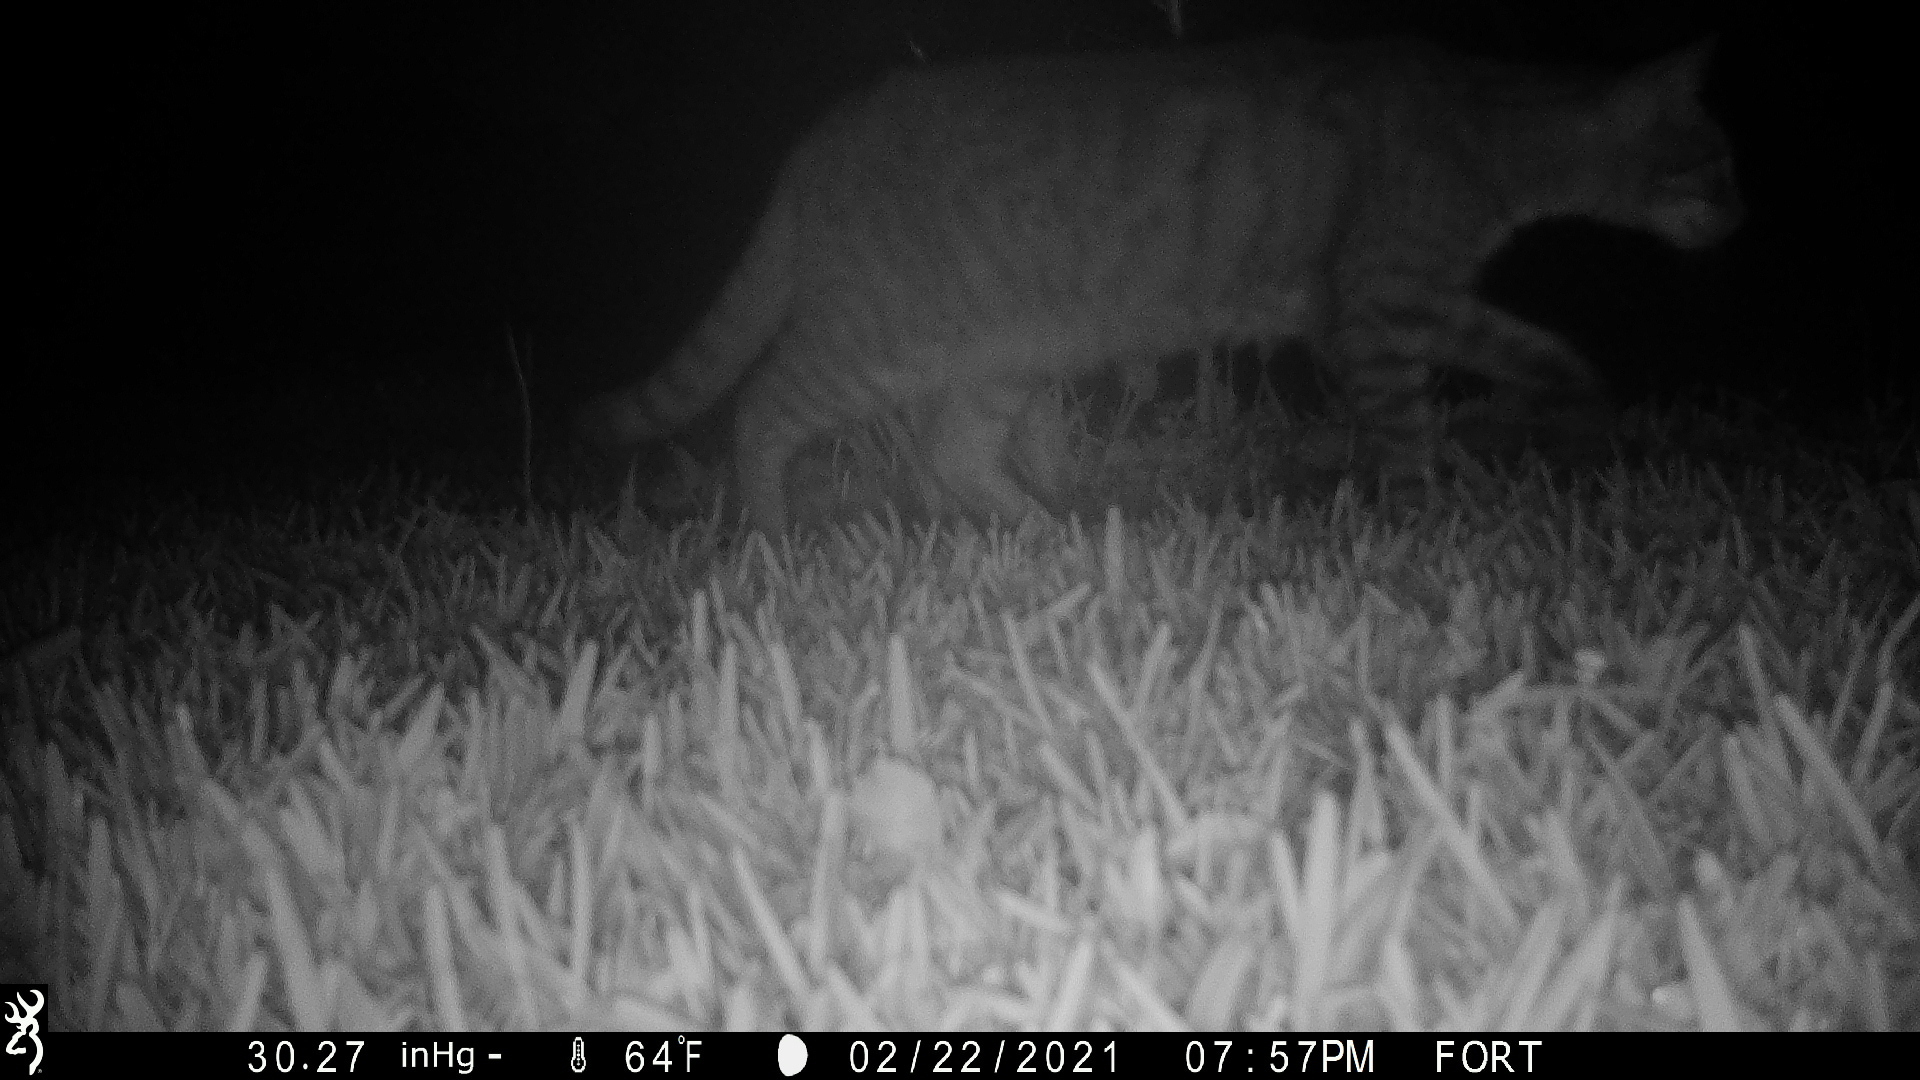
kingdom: Animalia
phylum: Chordata
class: Mammalia
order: Carnivora
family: Felidae
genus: Felis
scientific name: Felis catus
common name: Domestic cat
